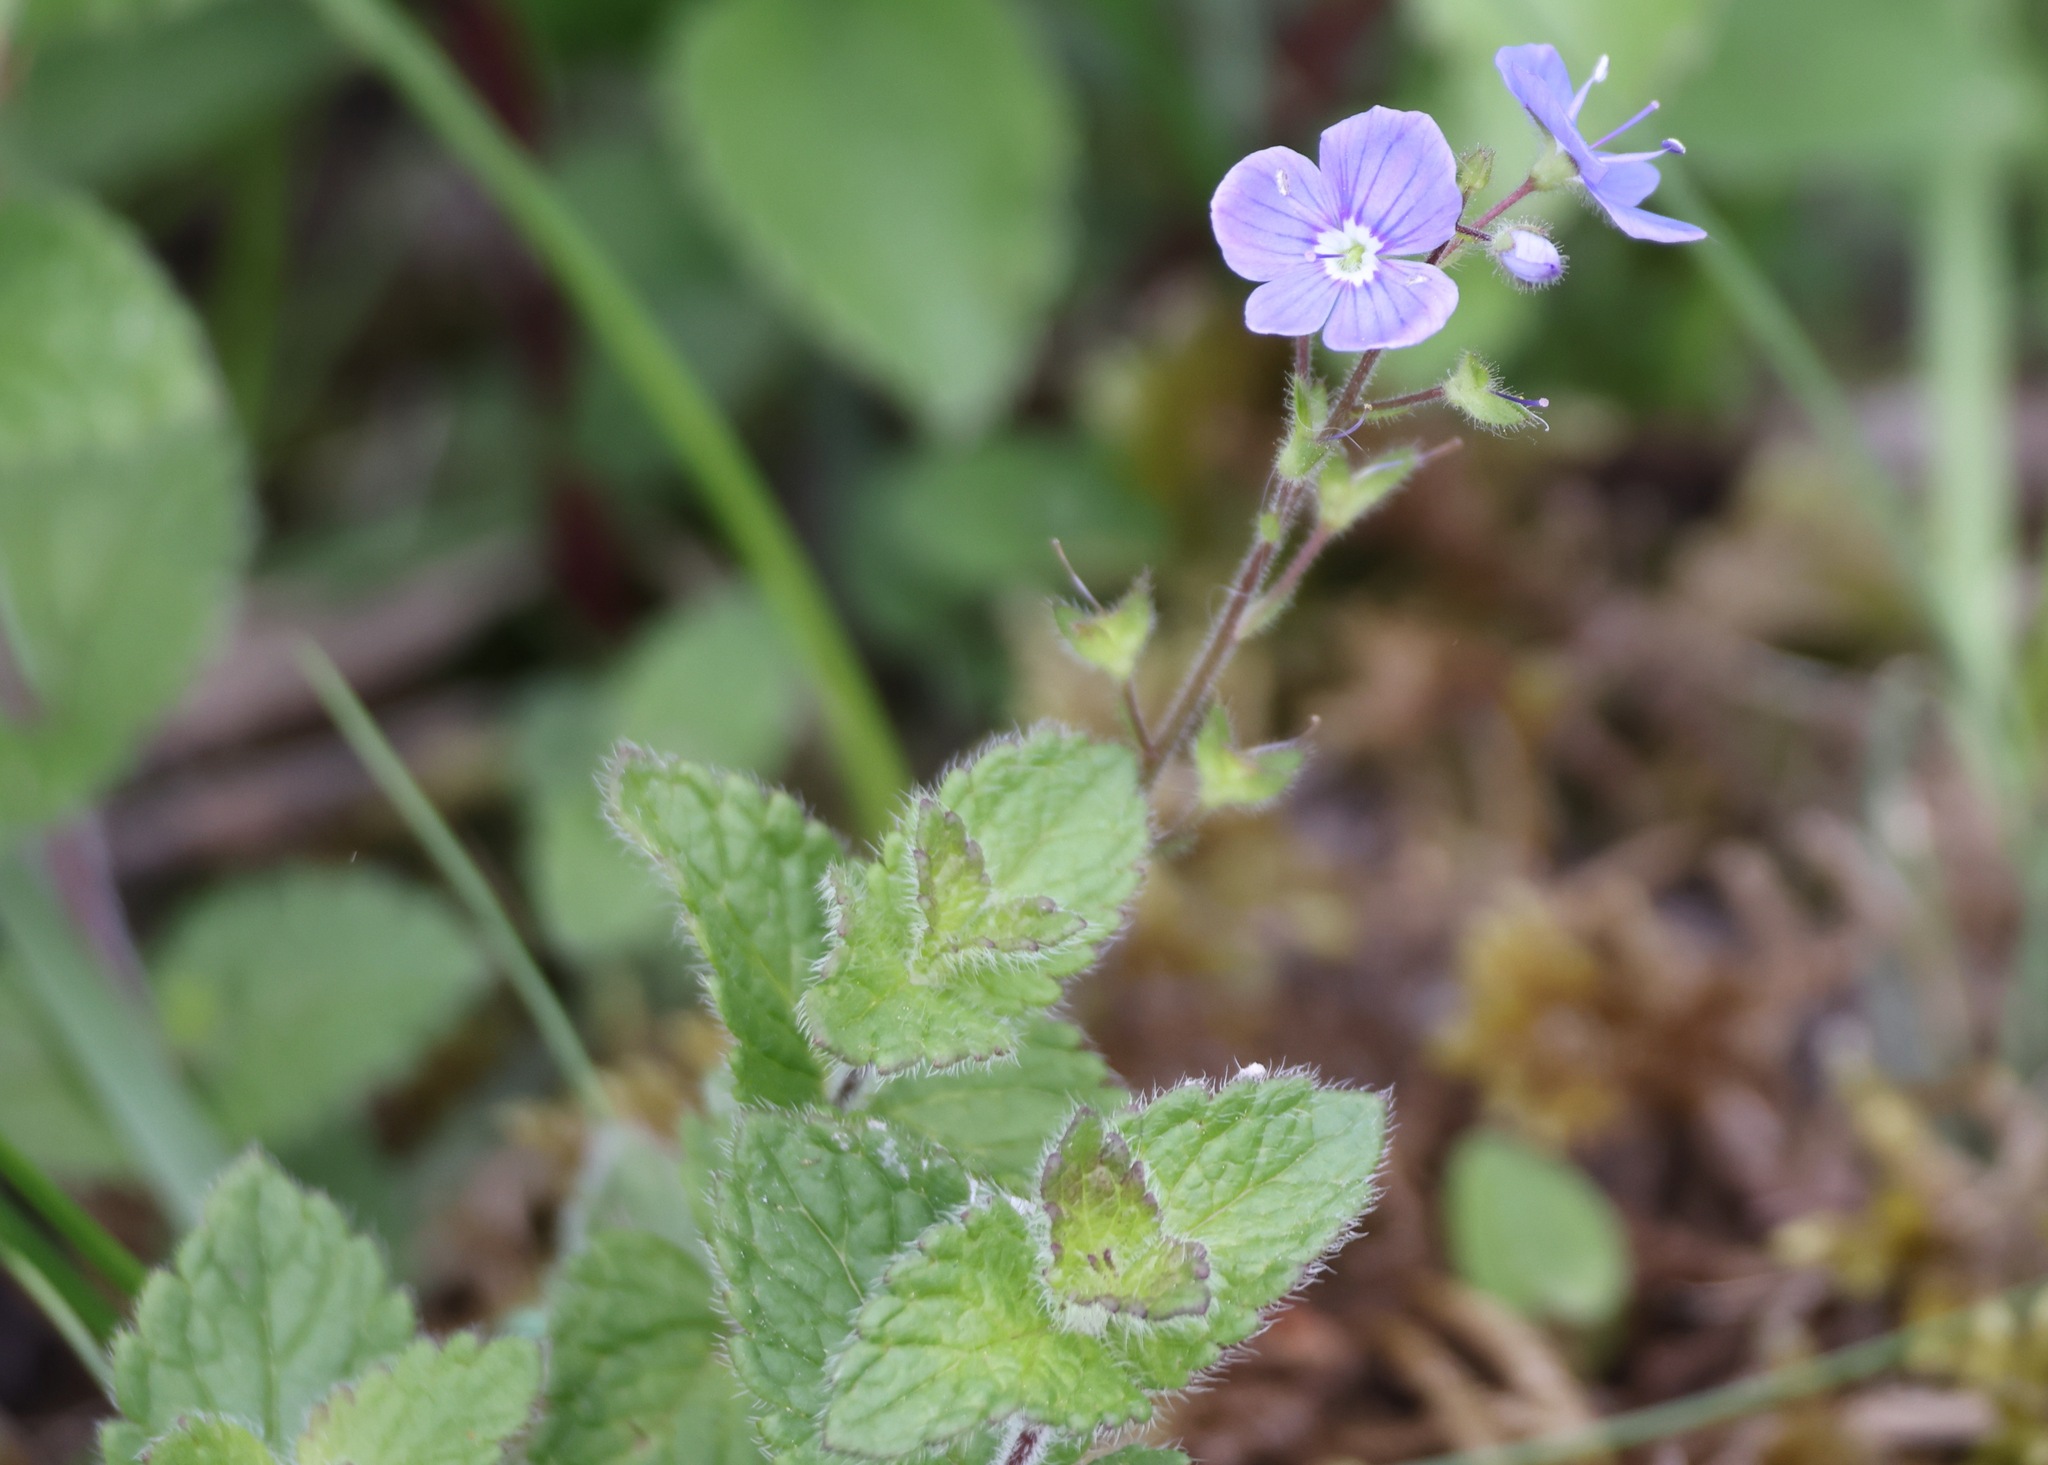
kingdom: Plantae
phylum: Tracheophyta
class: Magnoliopsida
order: Lamiales
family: Plantaginaceae
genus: Veronica
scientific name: Veronica chamaedrys
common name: Germander speedwell
